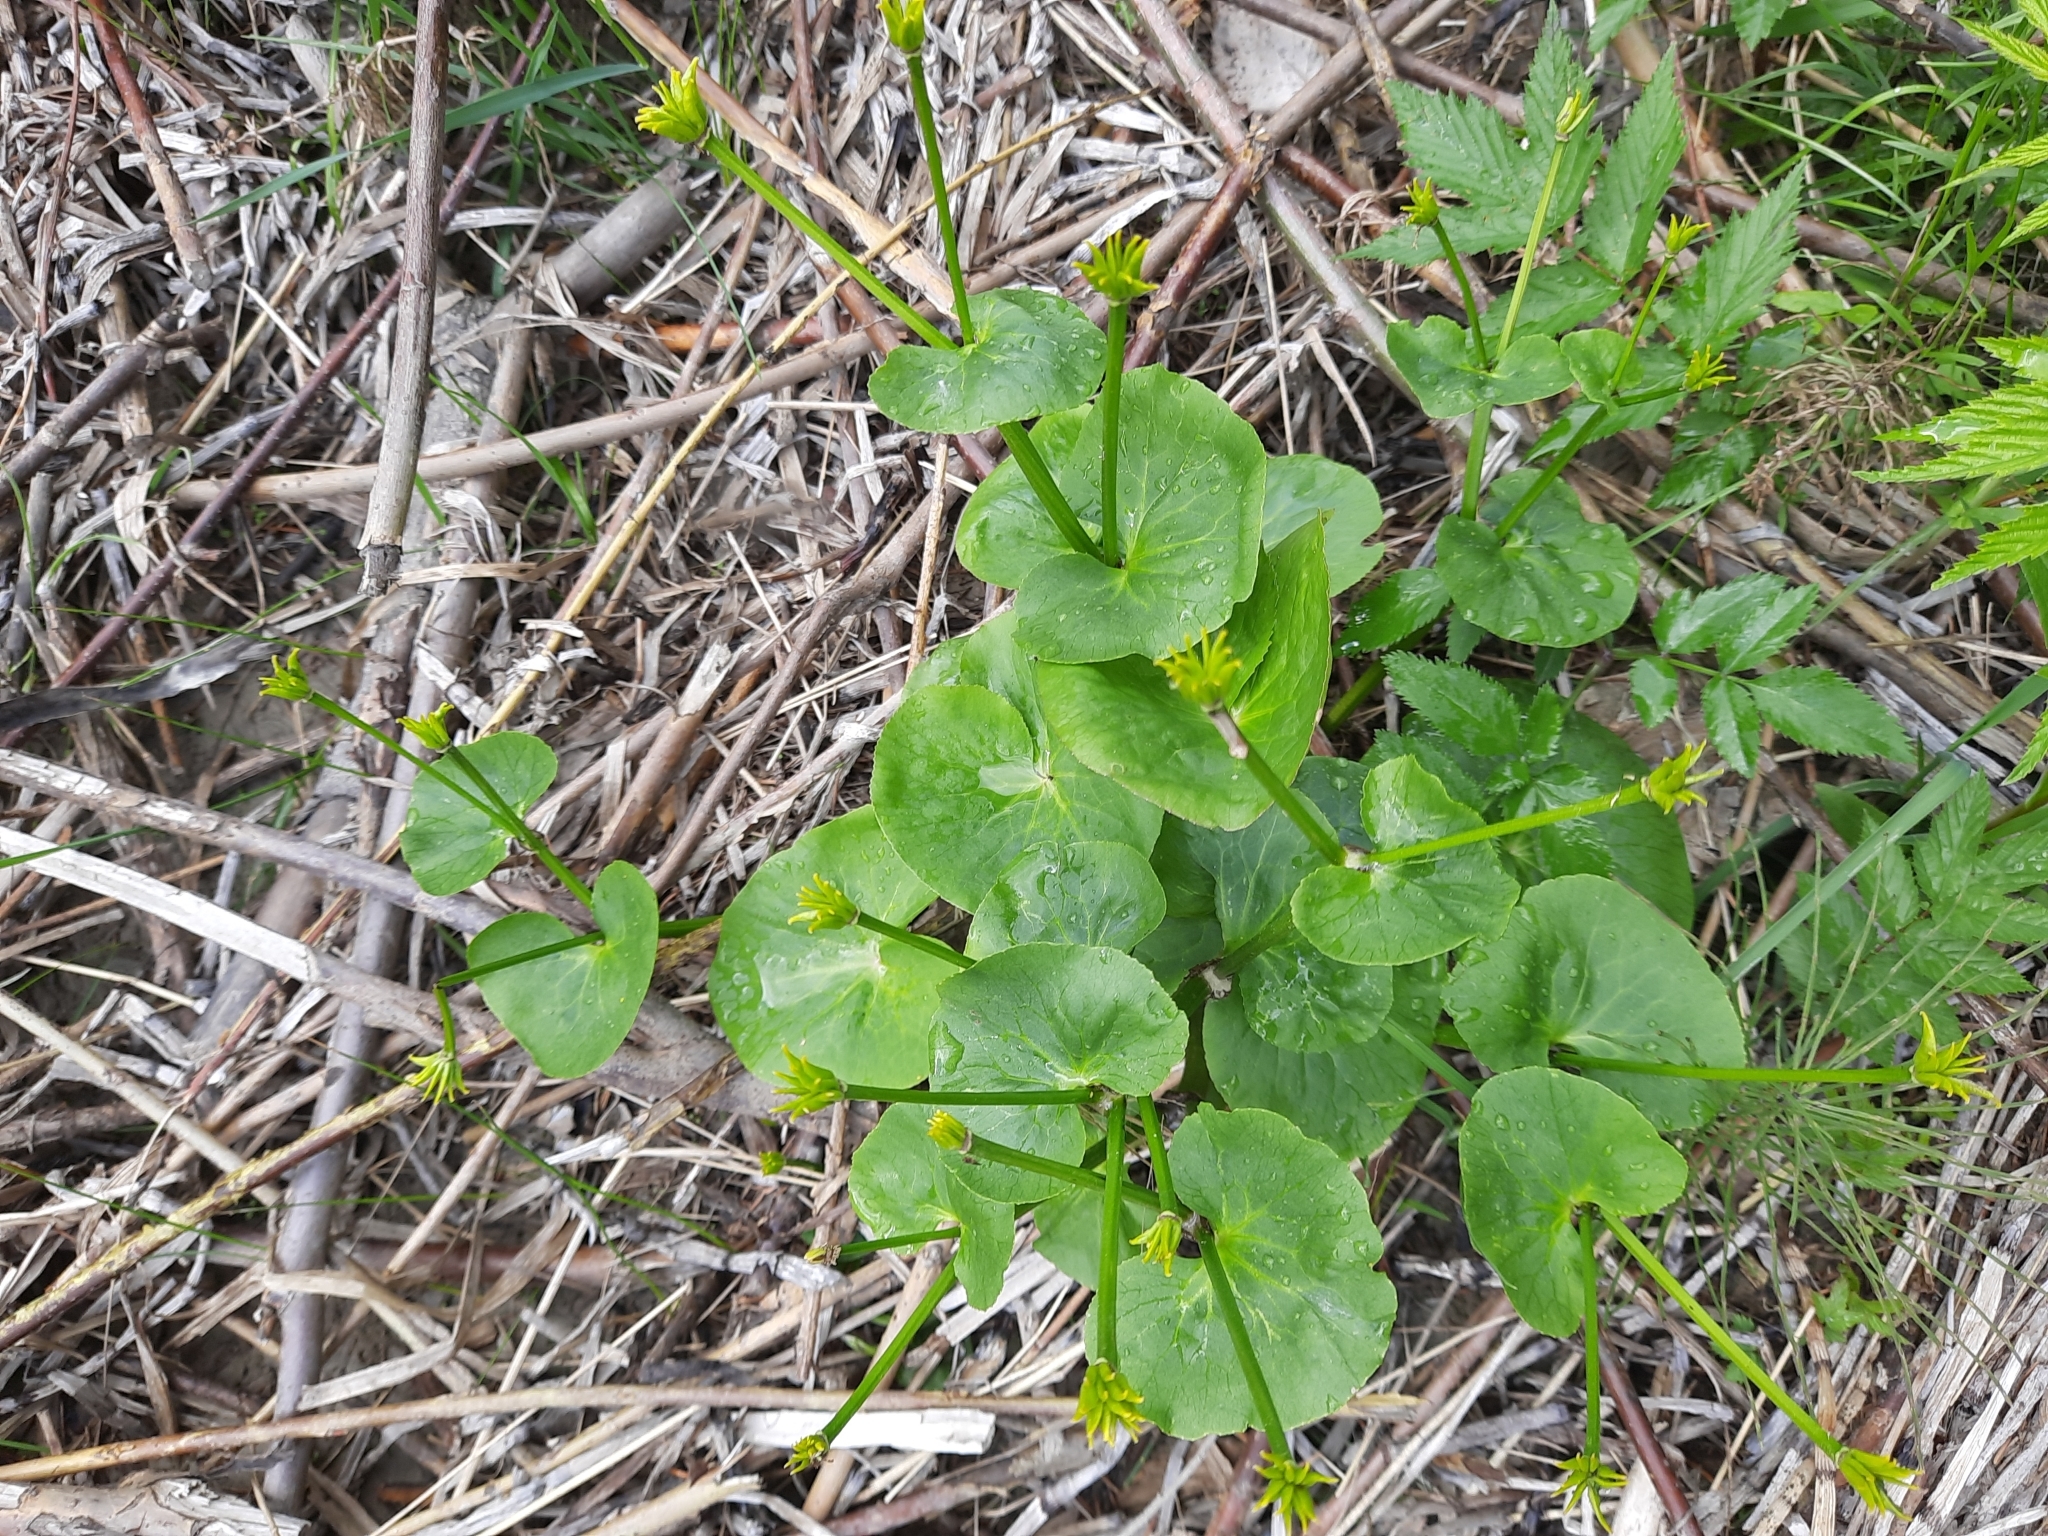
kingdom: Plantae
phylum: Tracheophyta
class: Magnoliopsida
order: Ranunculales
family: Ranunculaceae
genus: Caltha
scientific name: Caltha palustris
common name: Marsh marigold
